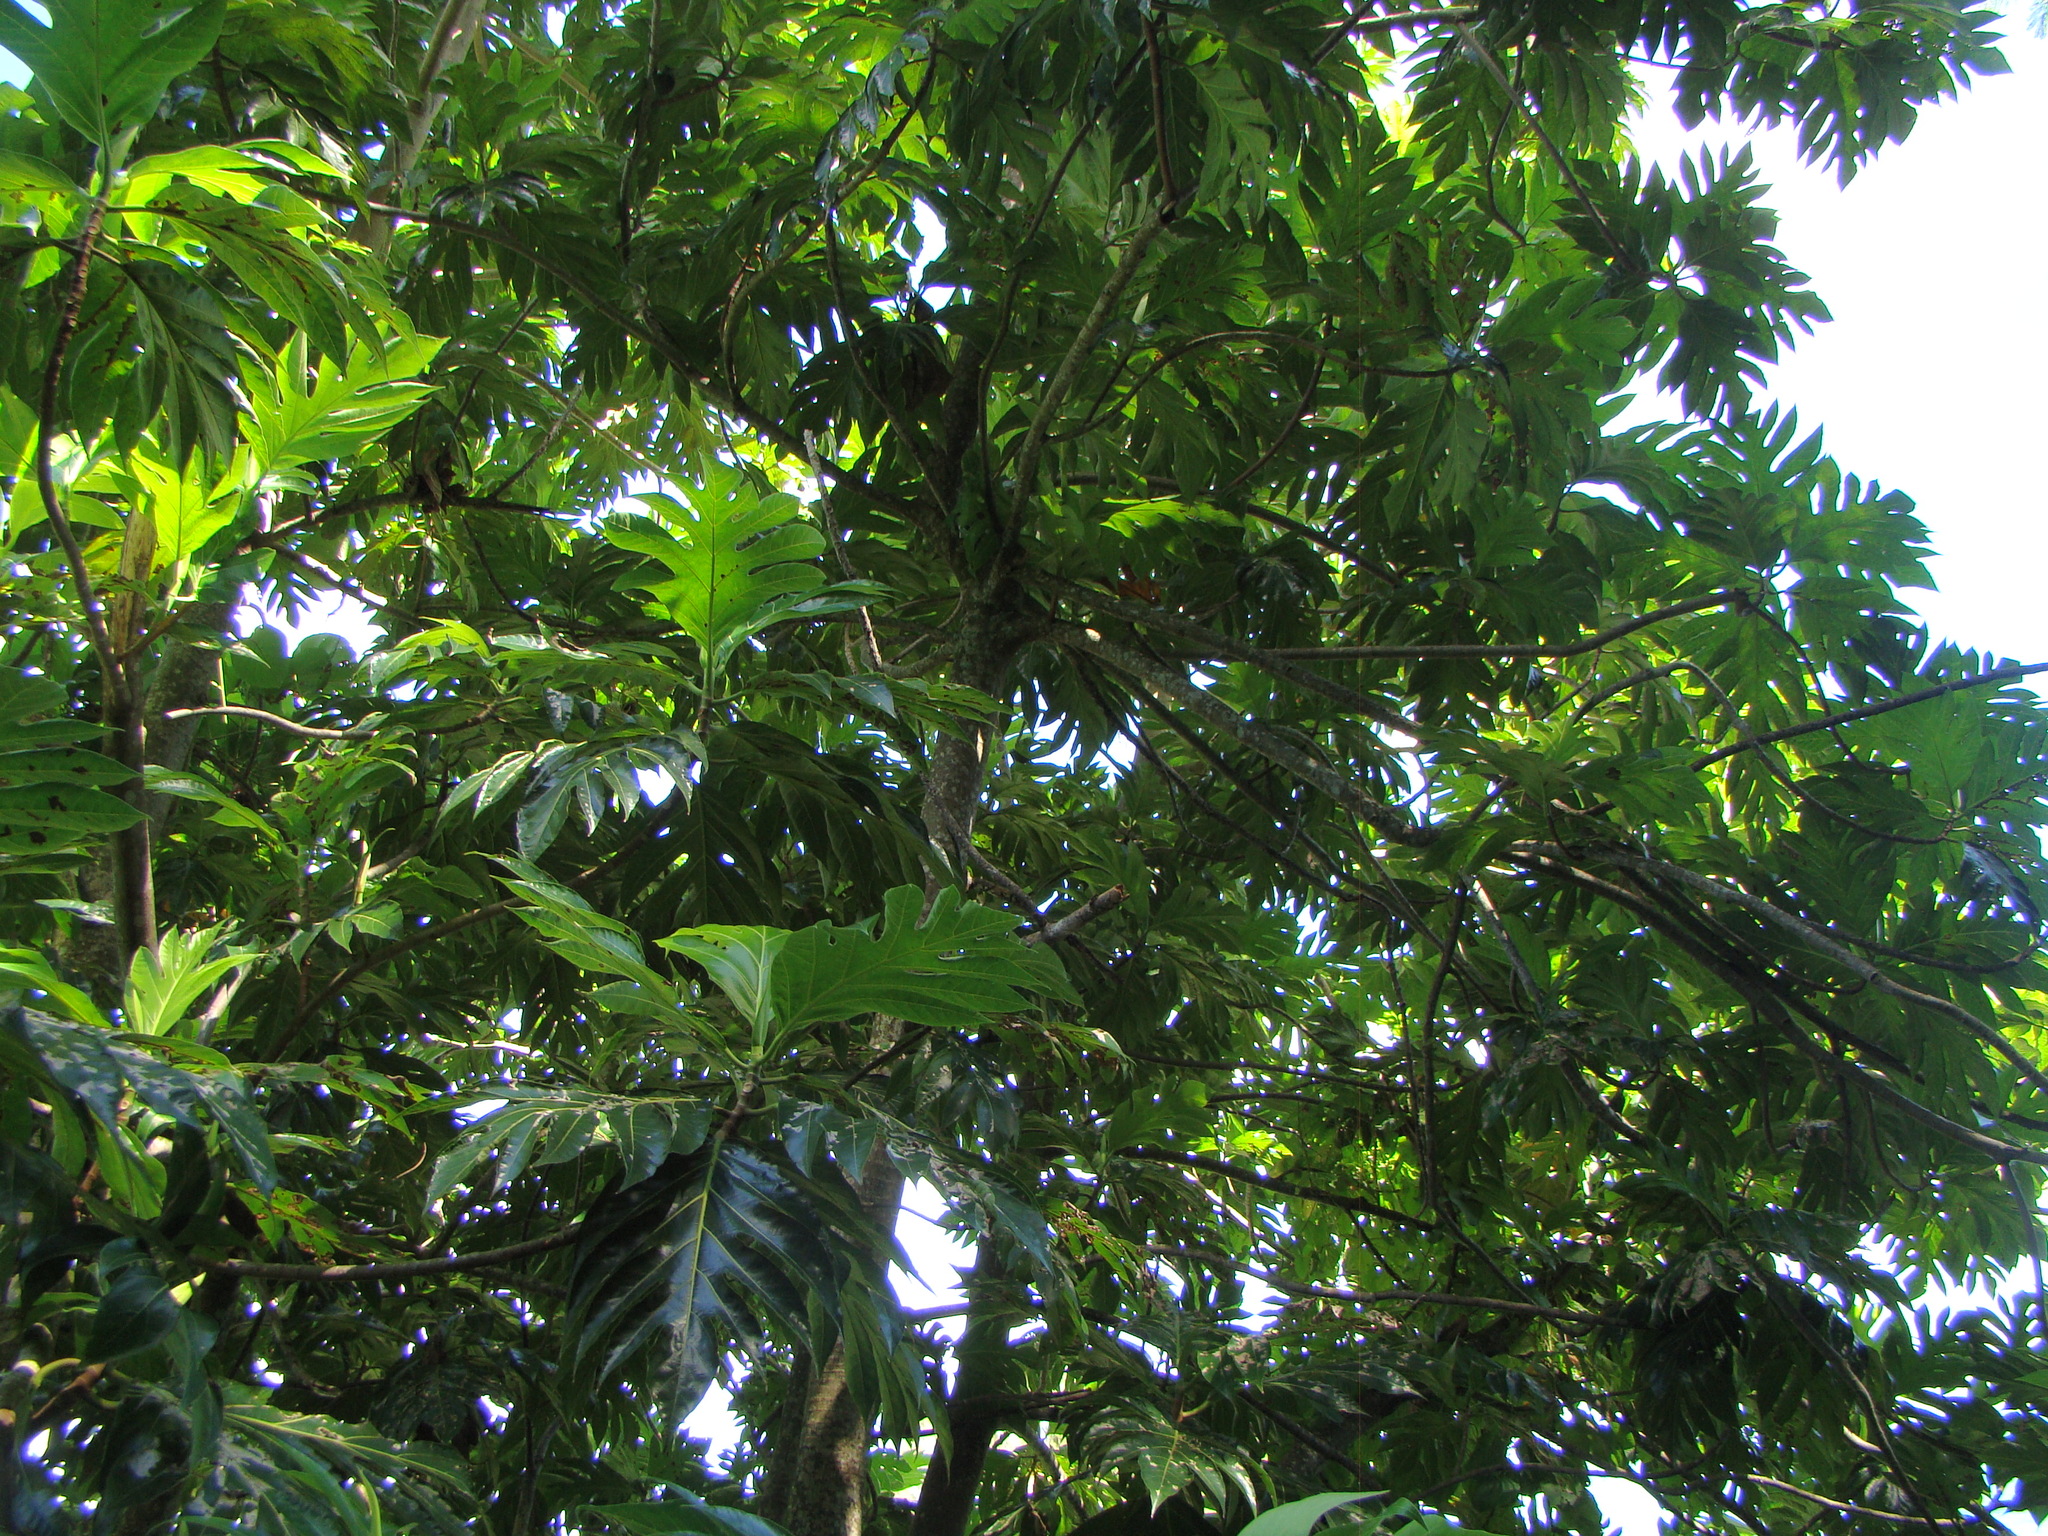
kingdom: Plantae
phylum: Tracheophyta
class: Magnoliopsida
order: Rosales
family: Moraceae
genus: Artocarpus
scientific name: Artocarpus altilis
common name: Breadfruit
